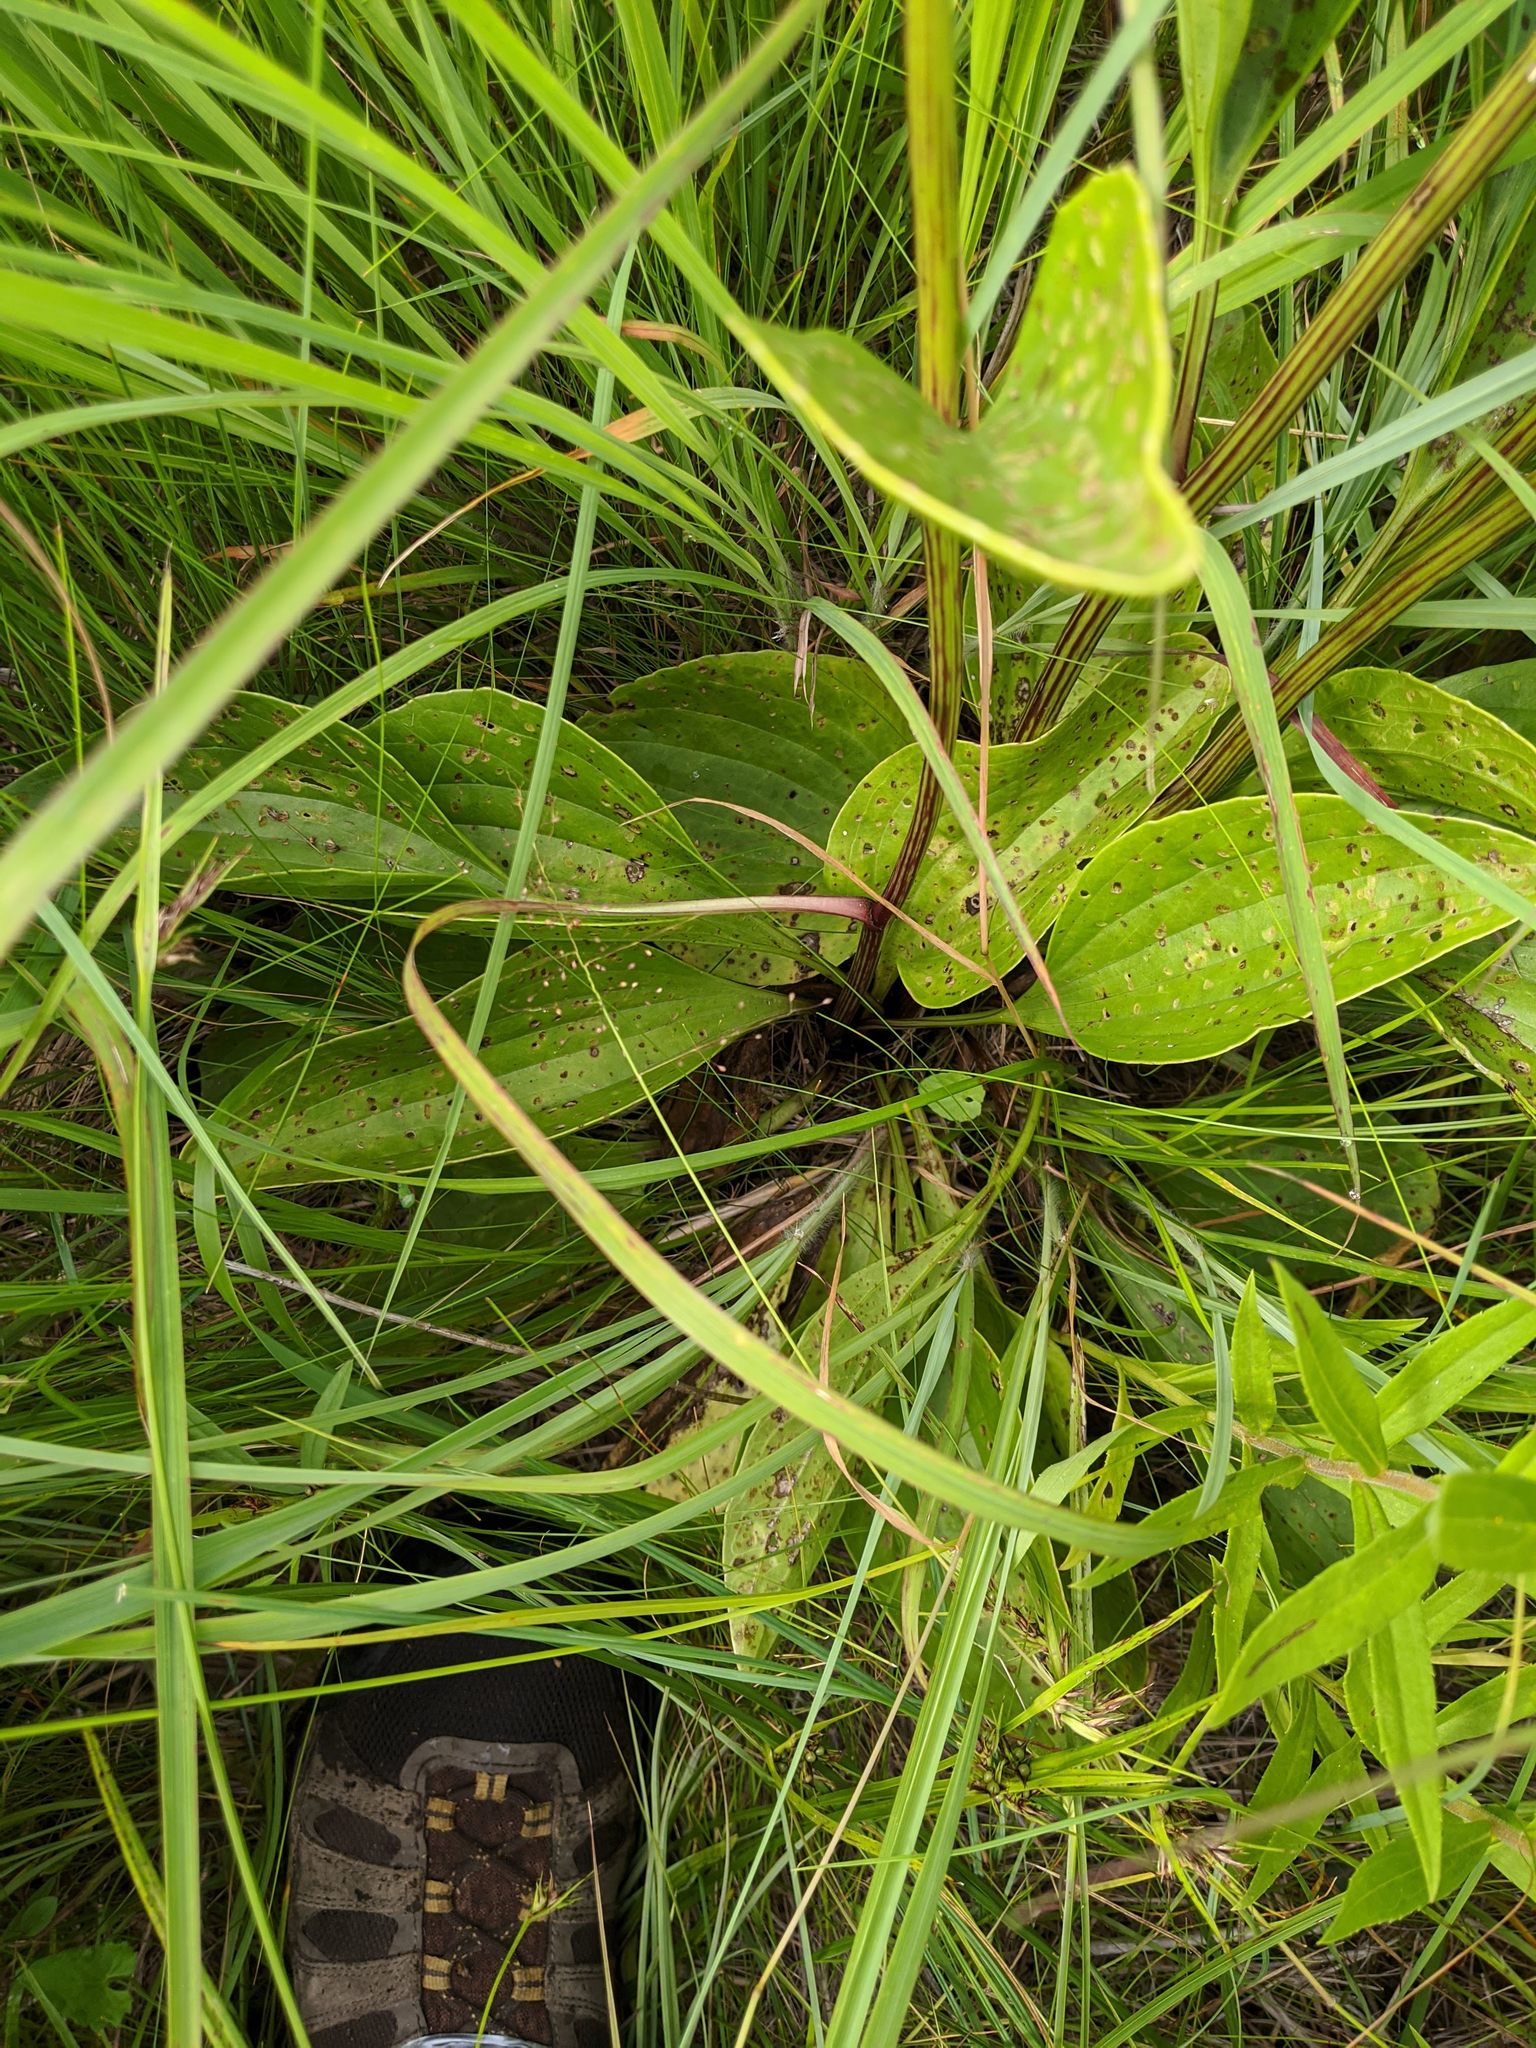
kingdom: Plantae
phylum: Tracheophyta
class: Magnoliopsida
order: Asterales
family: Asteraceae
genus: Arnoglossum
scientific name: Arnoglossum plantagineum
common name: Groove-stemmed indian-plantain
